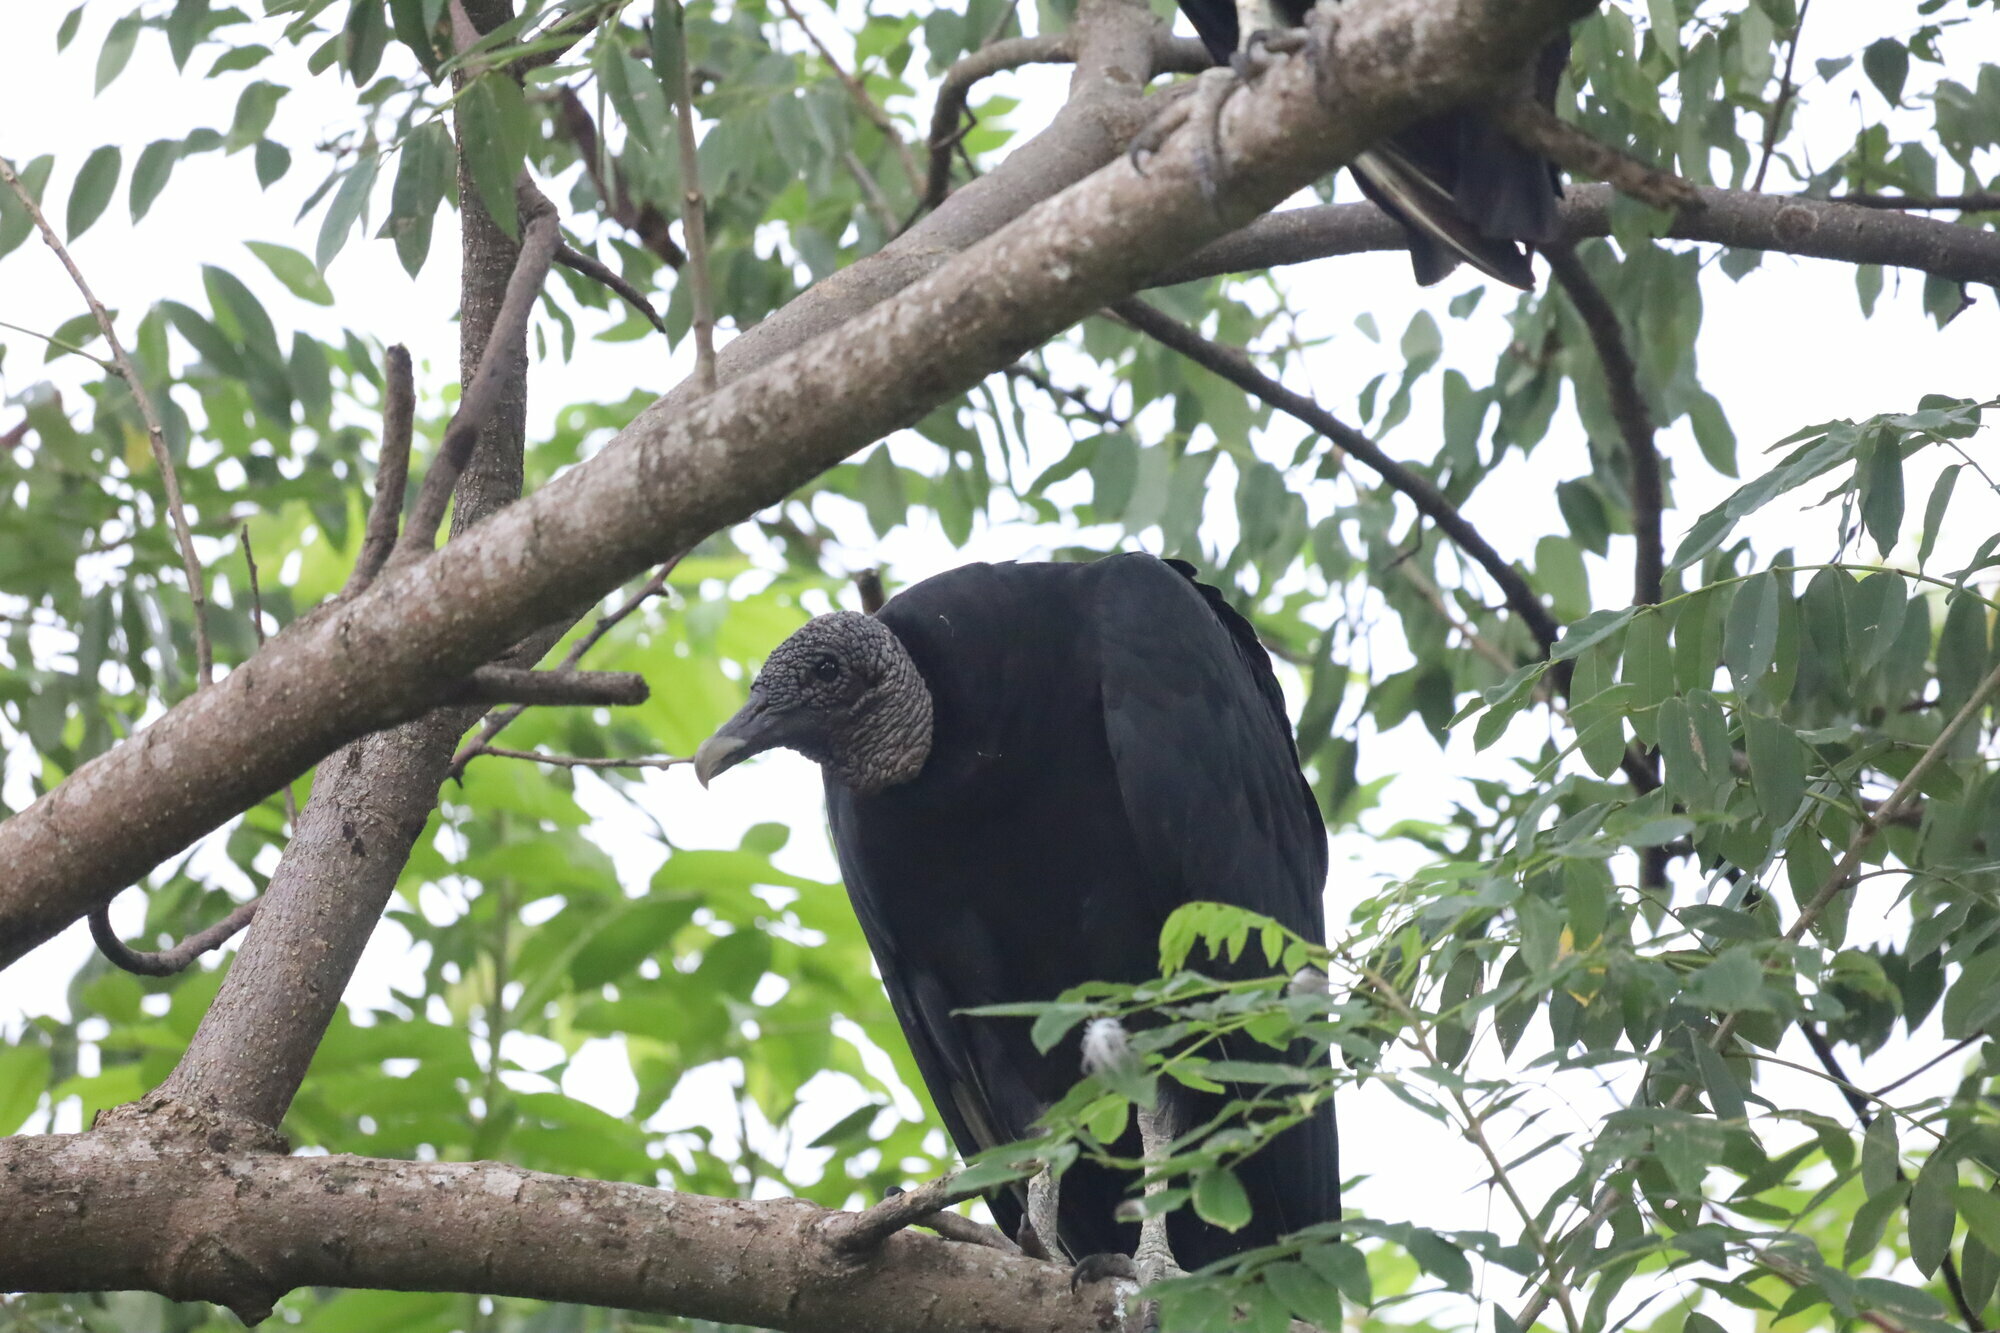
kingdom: Animalia
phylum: Chordata
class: Aves
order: Accipitriformes
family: Cathartidae
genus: Coragyps
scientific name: Coragyps atratus
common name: Black vulture
